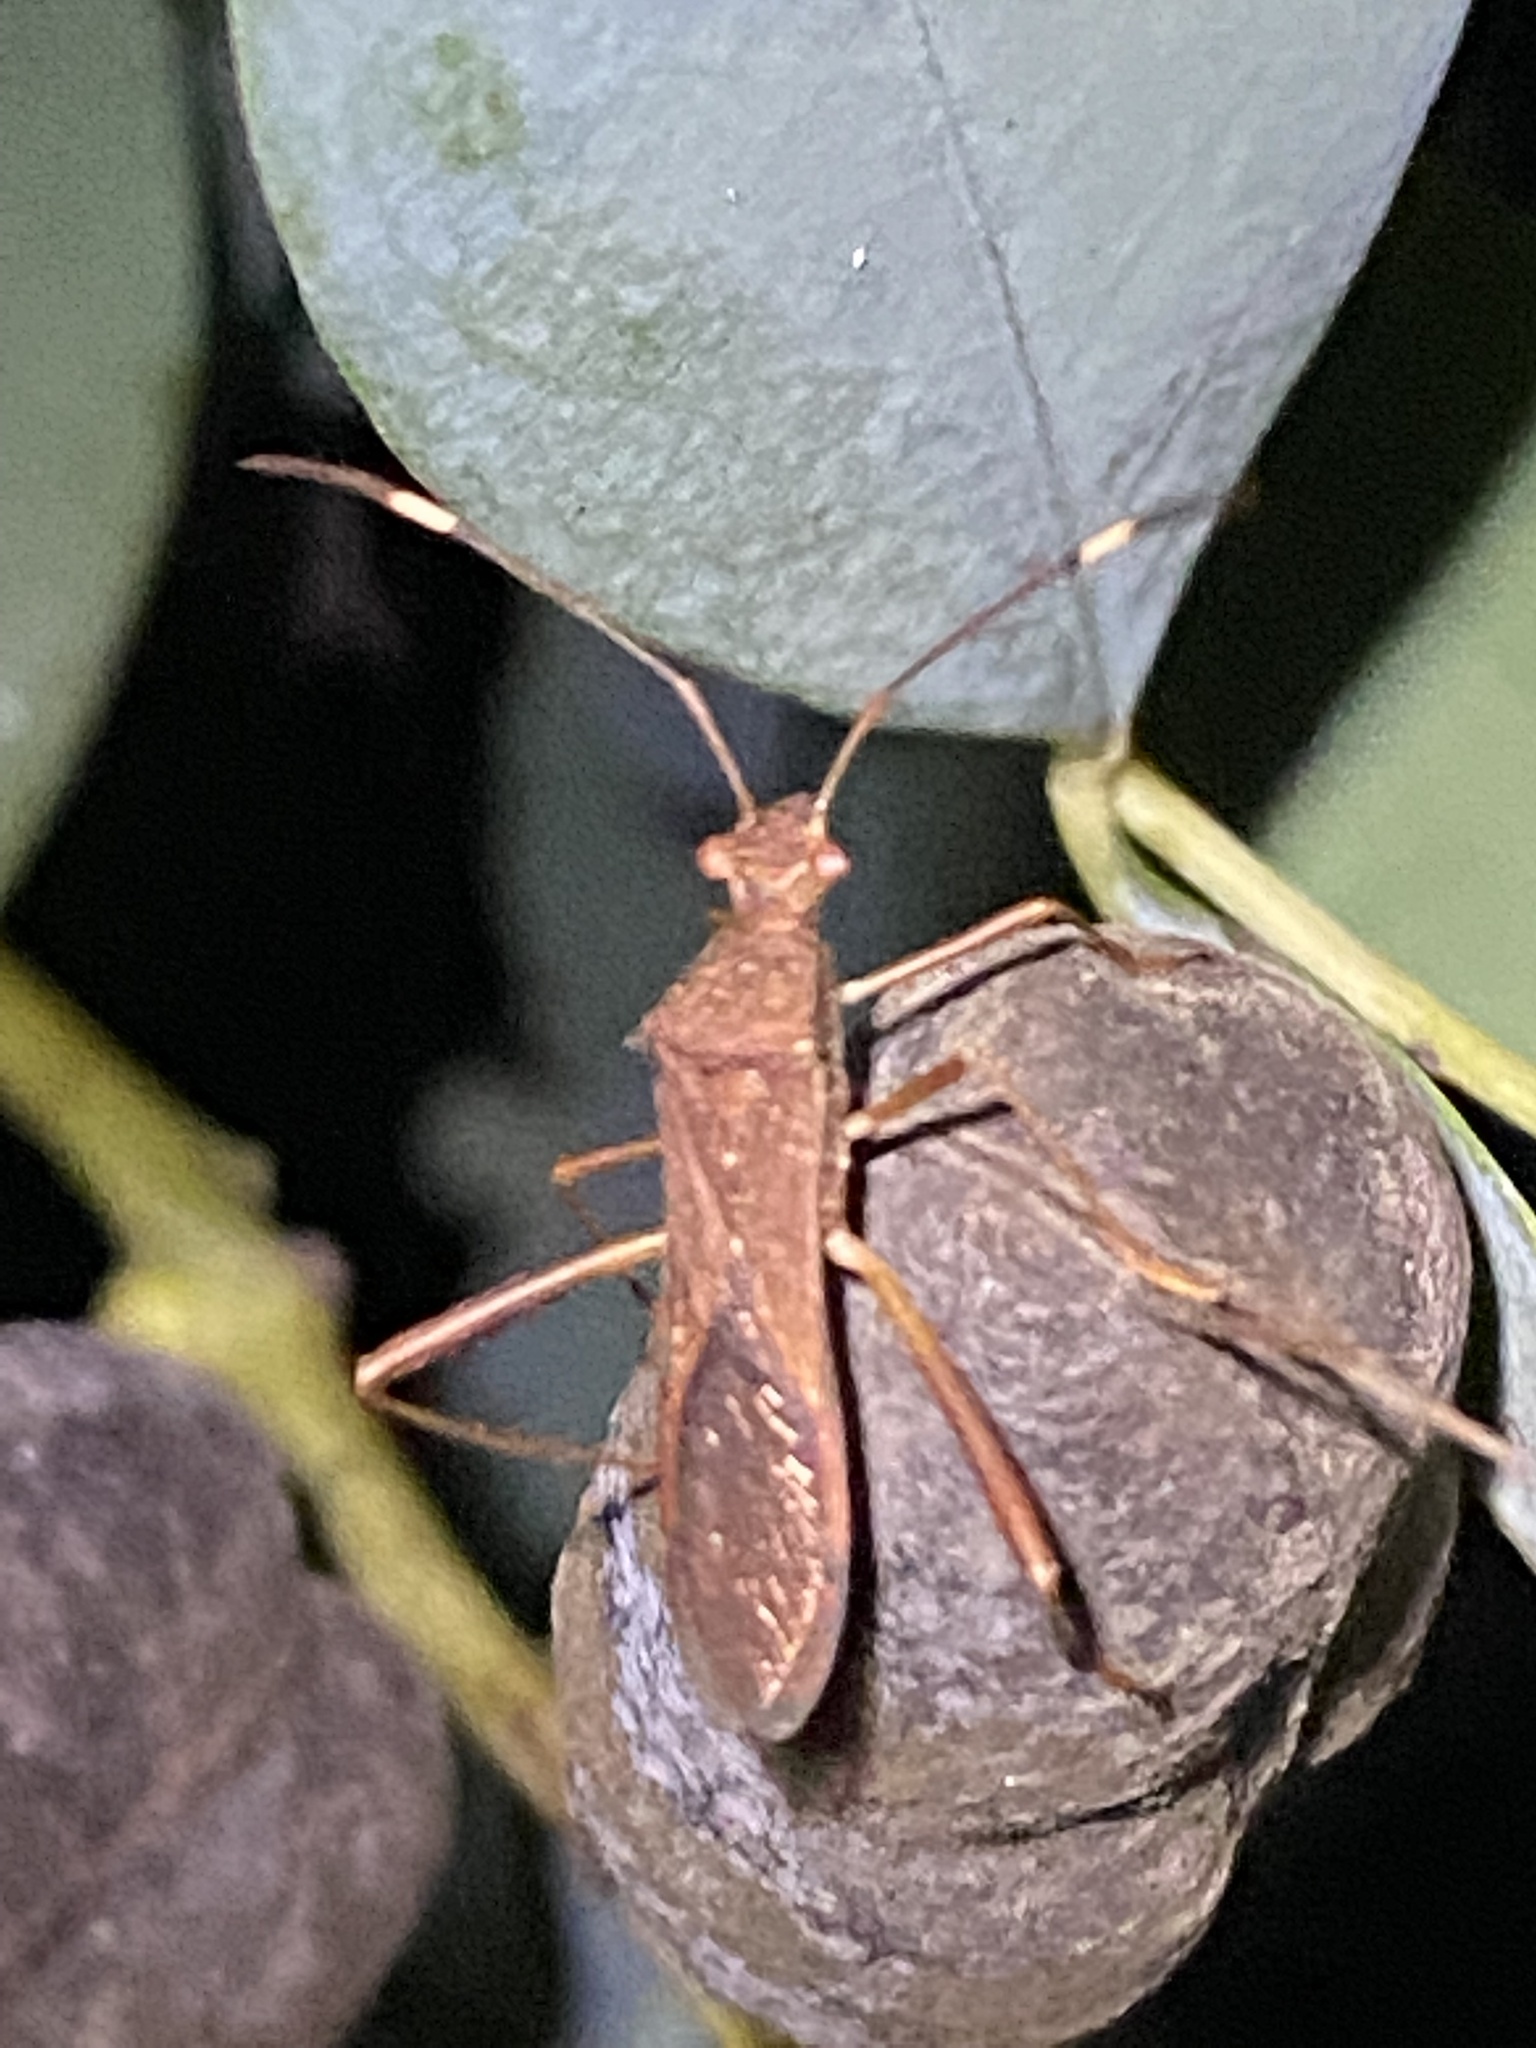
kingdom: Animalia
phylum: Arthropoda
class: Insecta
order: Hemiptera
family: Alydidae
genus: Megalotomus
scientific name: Megalotomus quinquespinosus
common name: Lupine bug
